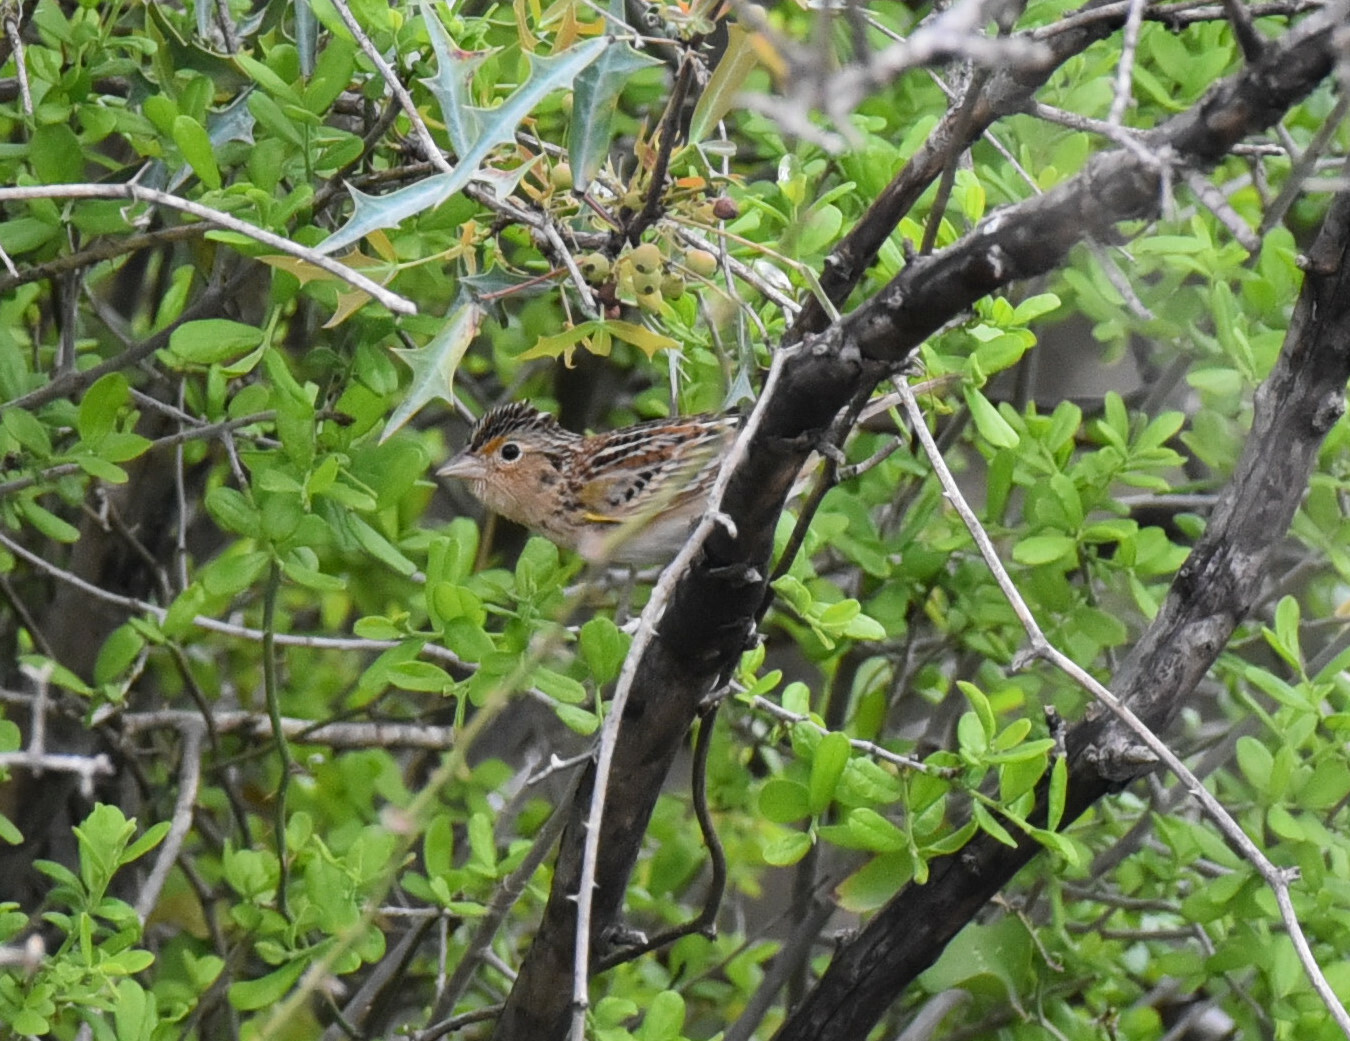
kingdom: Animalia
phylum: Chordata
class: Aves
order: Passeriformes
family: Passerellidae
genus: Ammodramus
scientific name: Ammodramus savannarum
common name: Grasshopper sparrow
